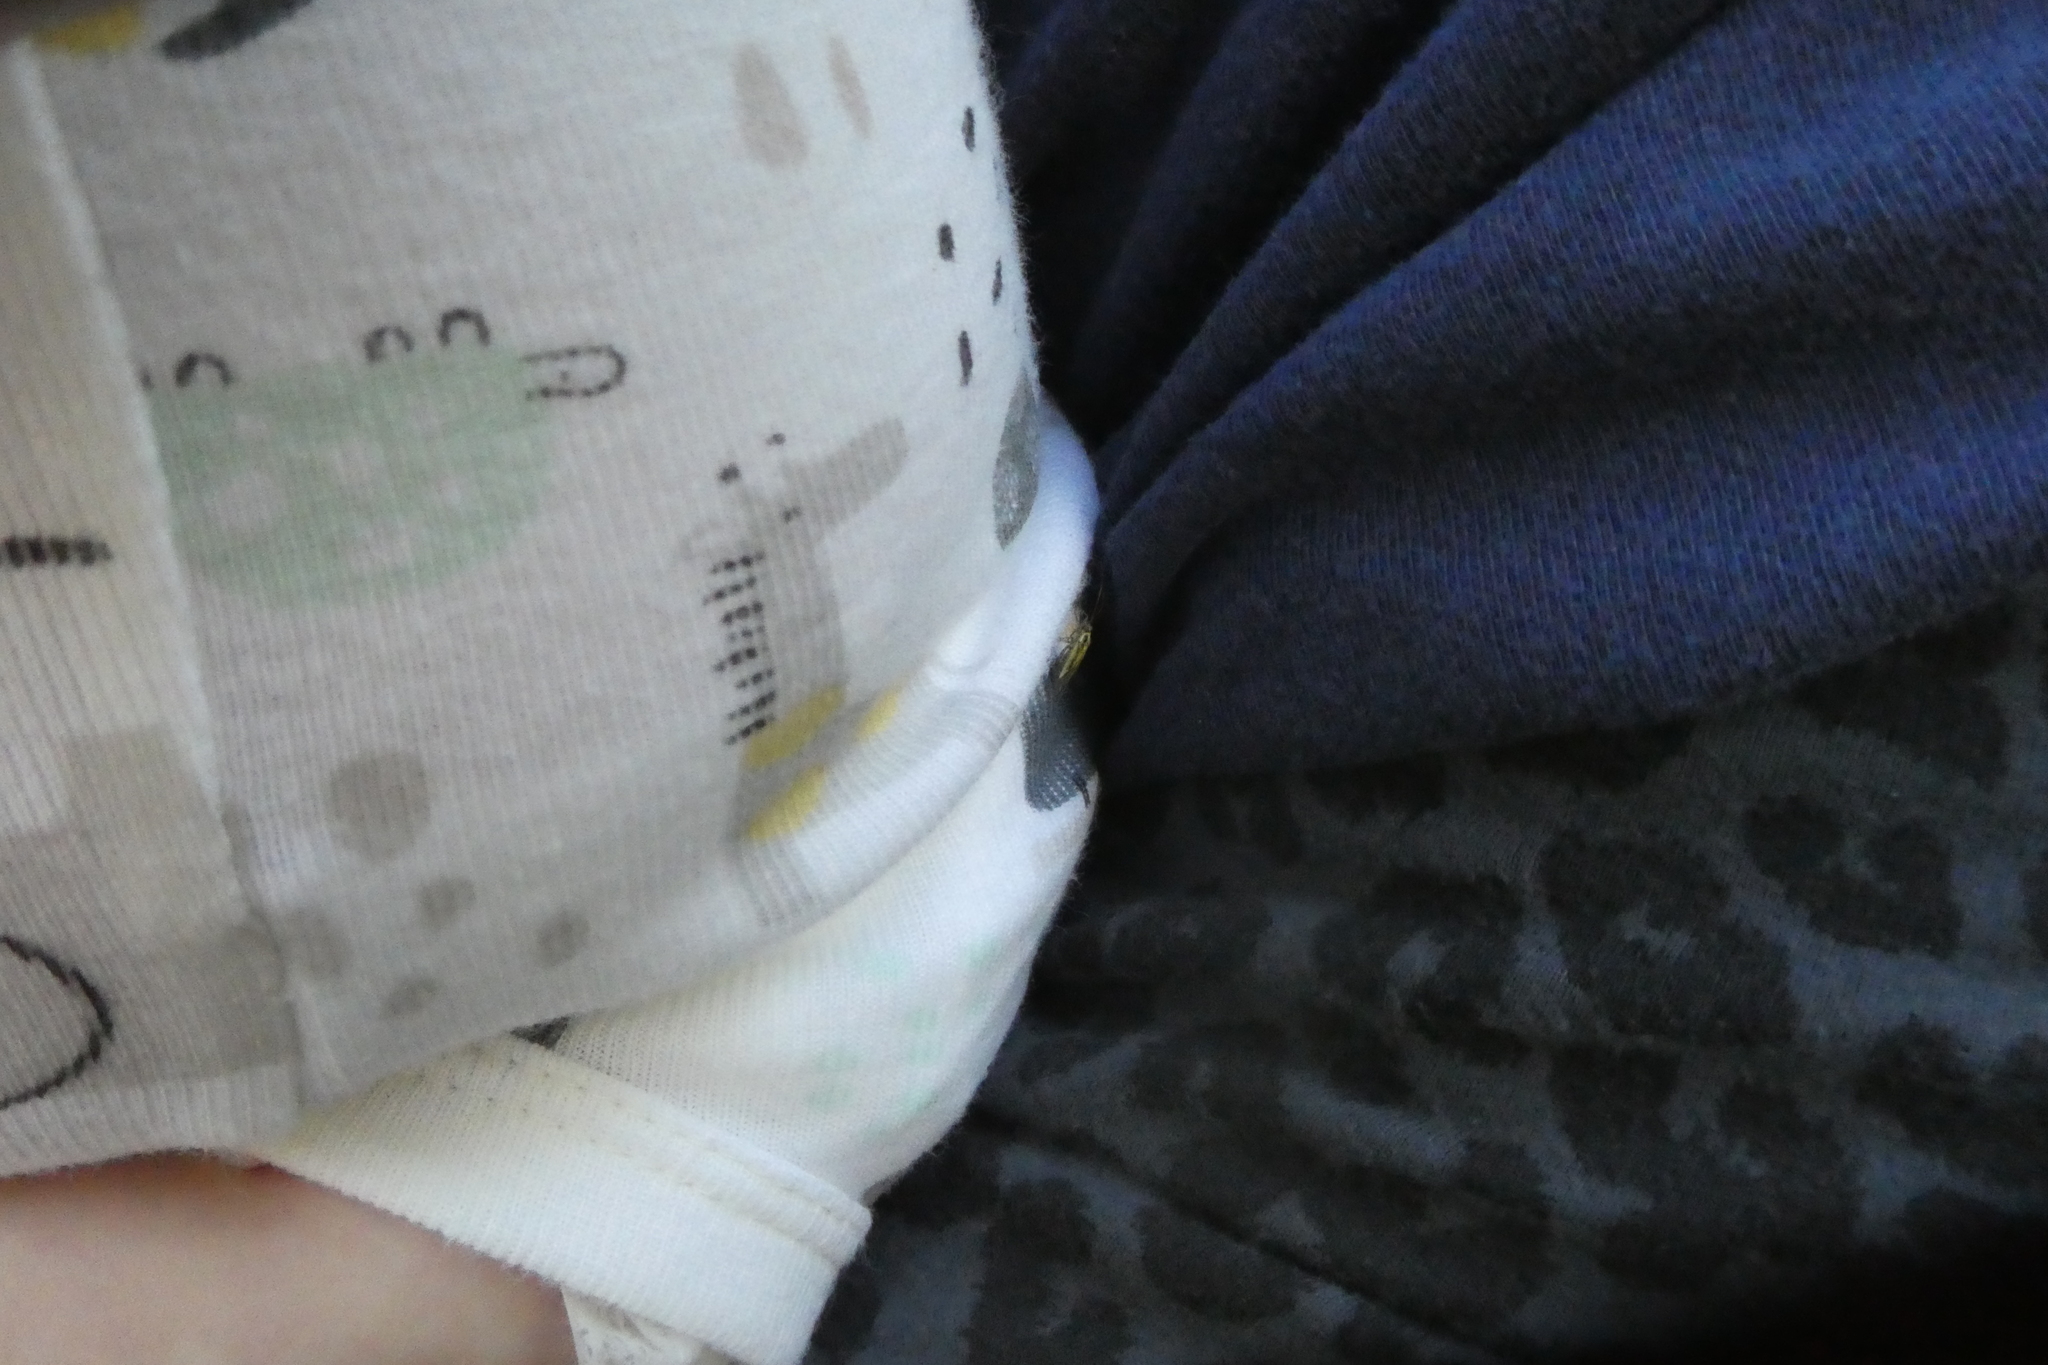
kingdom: Animalia
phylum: Arthropoda
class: Insecta
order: Hemiptera
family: Miridae
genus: Stenotus
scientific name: Stenotus binotatus
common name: Plant bug
